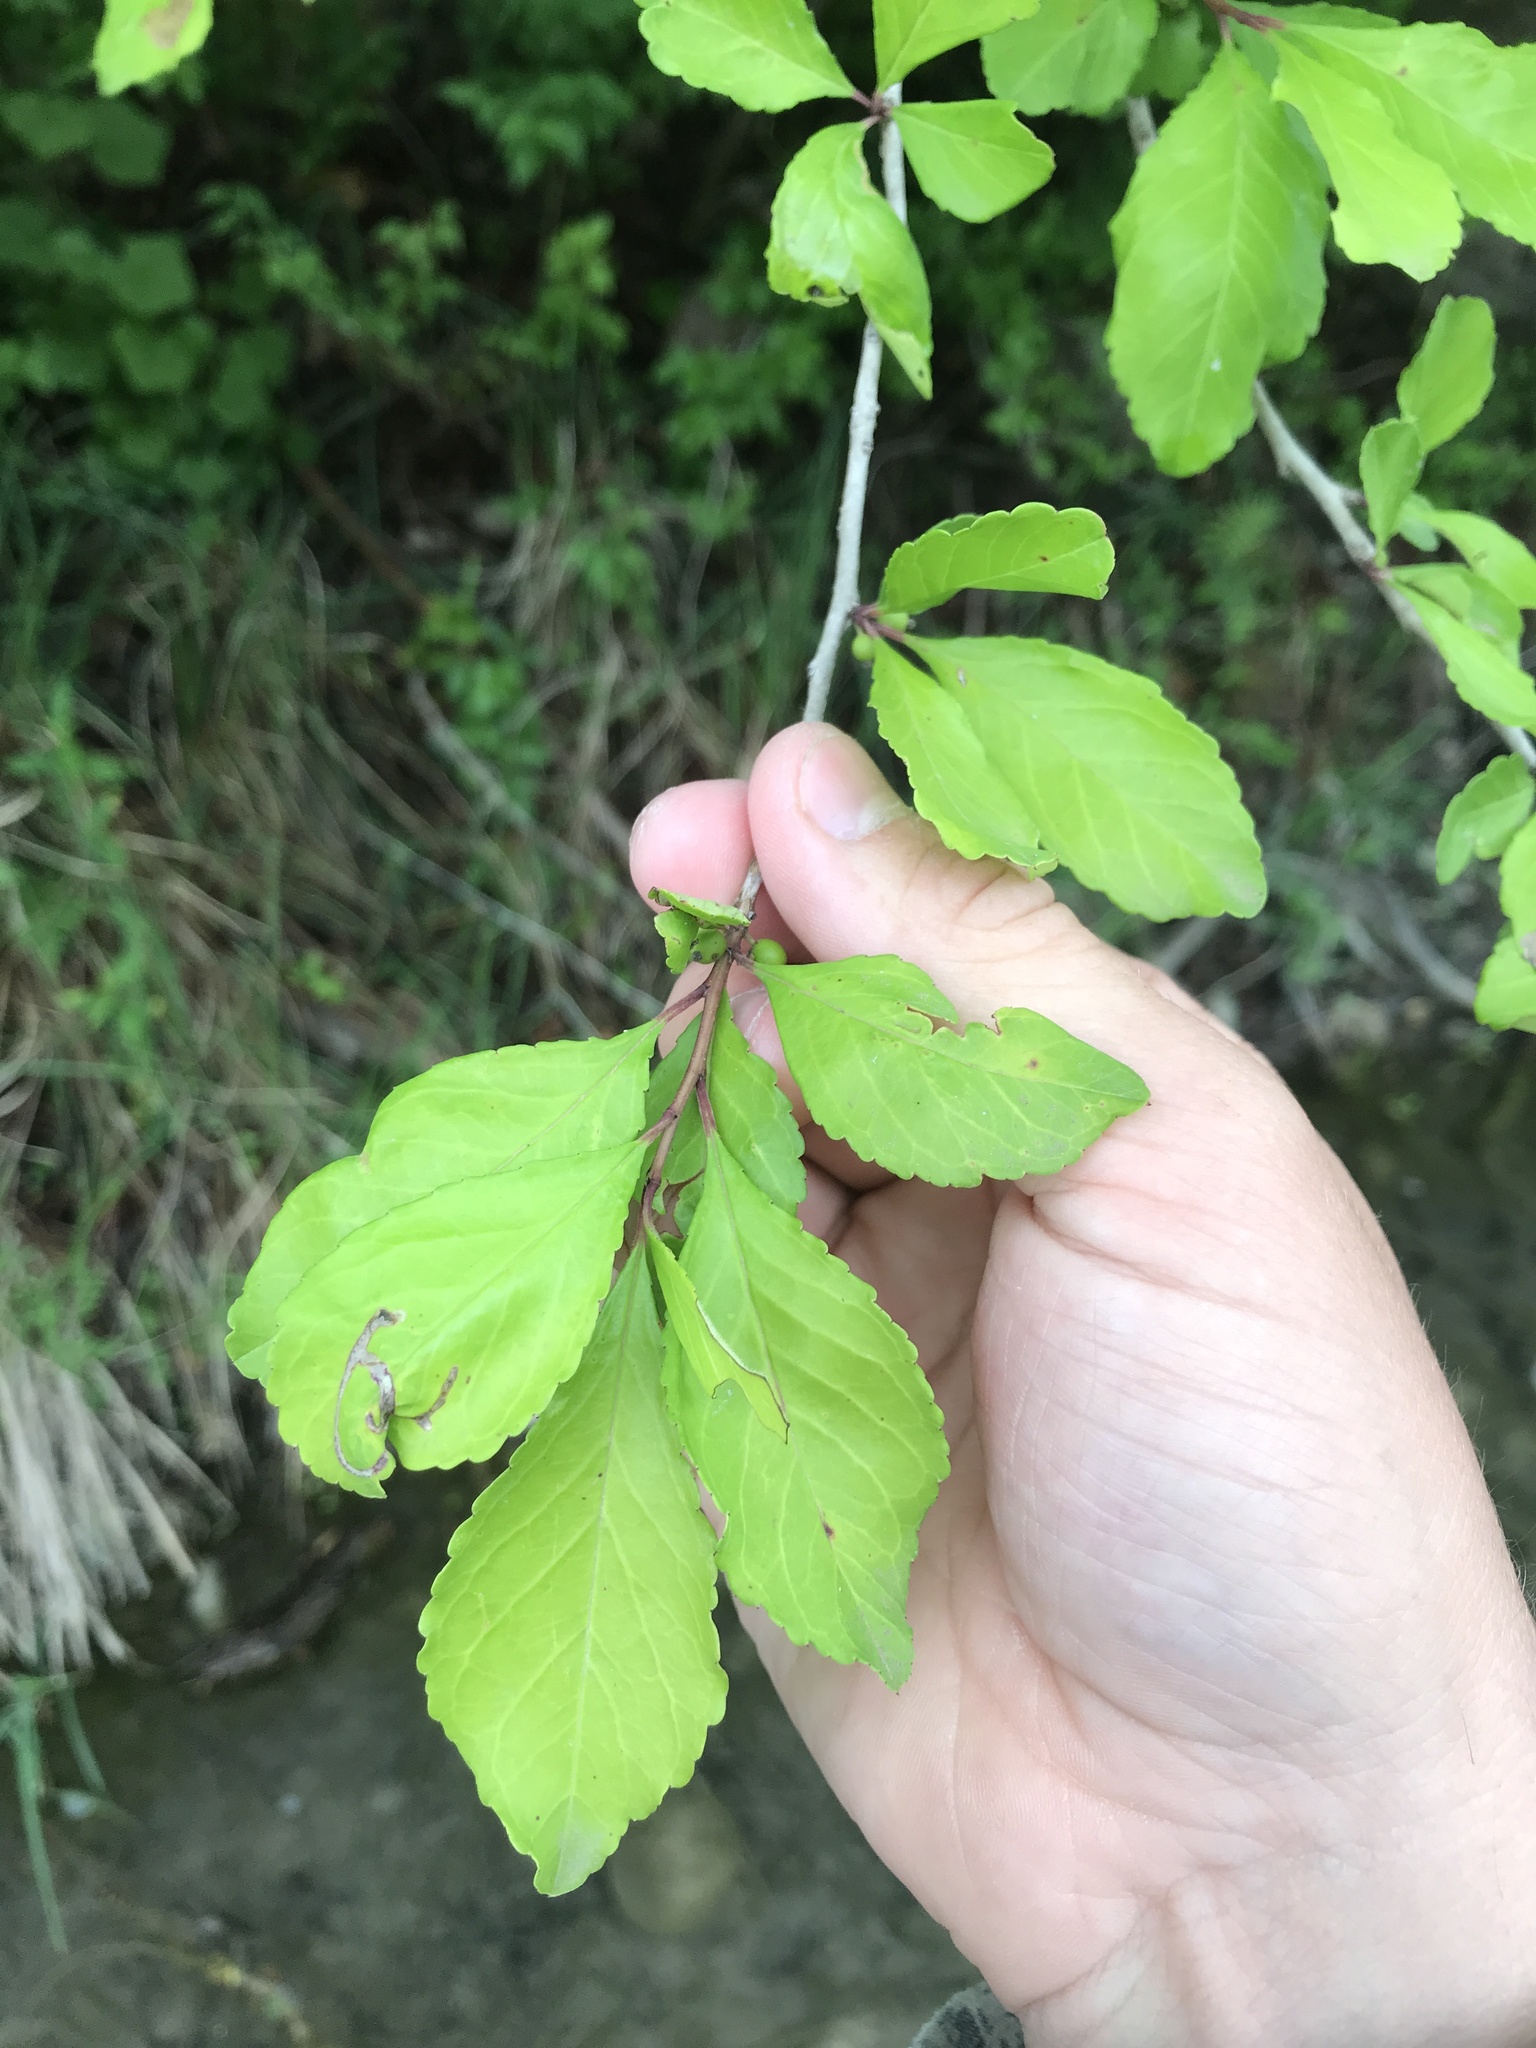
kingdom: Plantae
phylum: Tracheophyta
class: Magnoliopsida
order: Aquifoliales
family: Aquifoliaceae
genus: Ilex
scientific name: Ilex decidua
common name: Possum-haw
